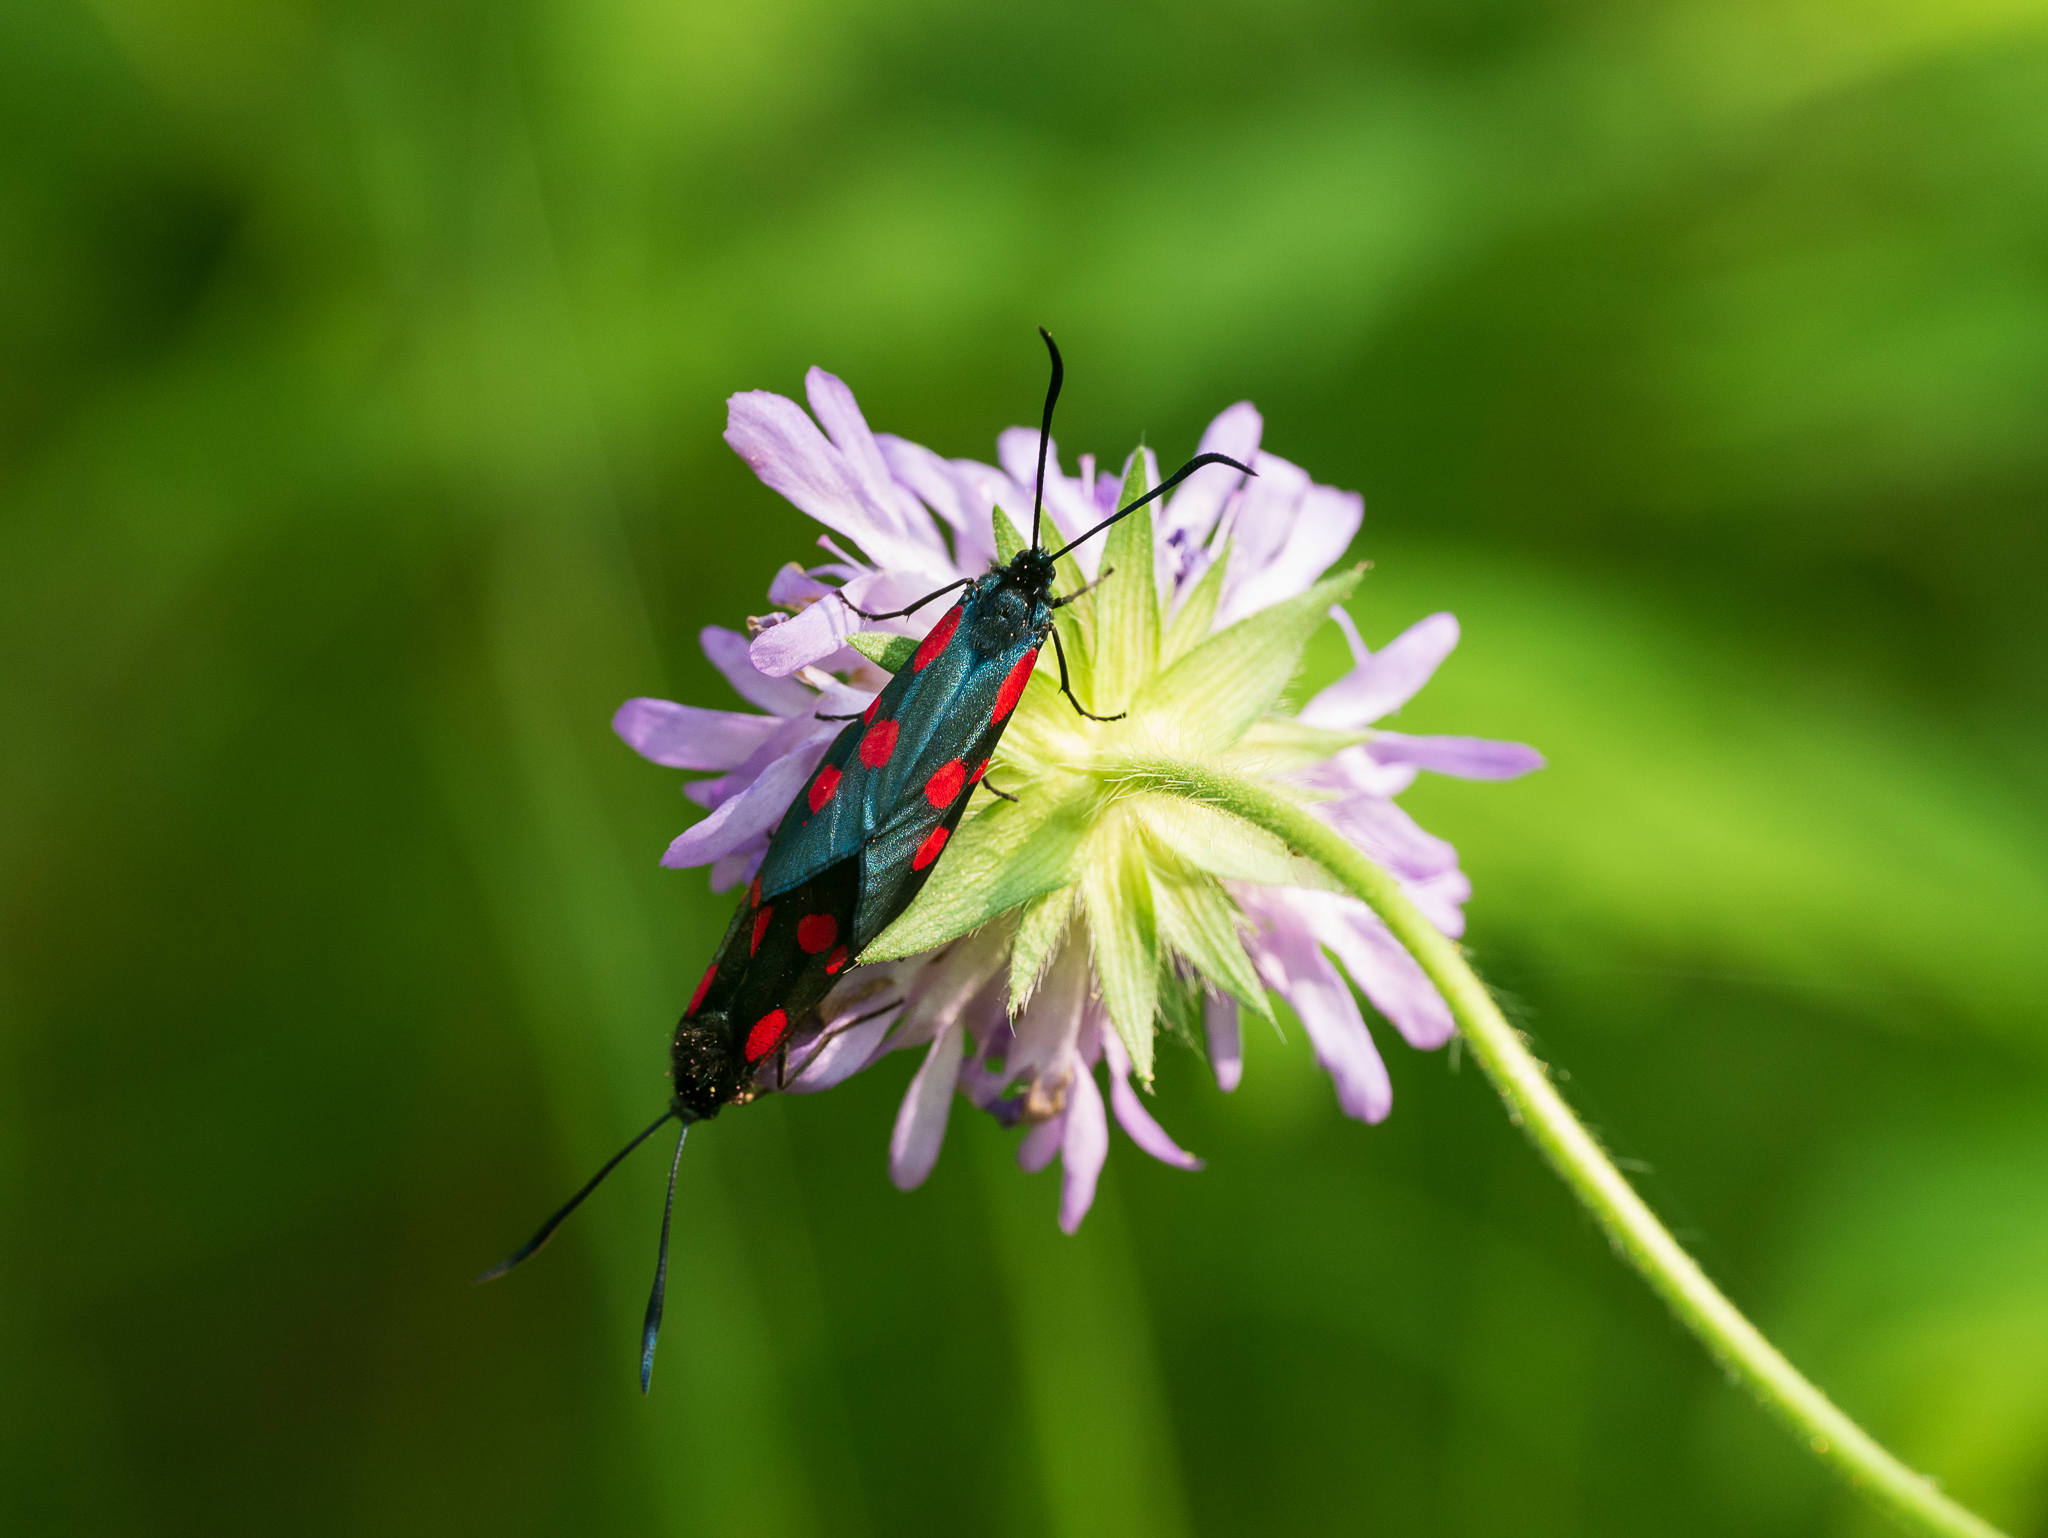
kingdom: Animalia
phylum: Arthropoda
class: Insecta
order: Lepidoptera
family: Zygaenidae
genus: Zygaena
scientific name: Zygaena lonicerae
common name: Narrow-bordered five-spot burnet
